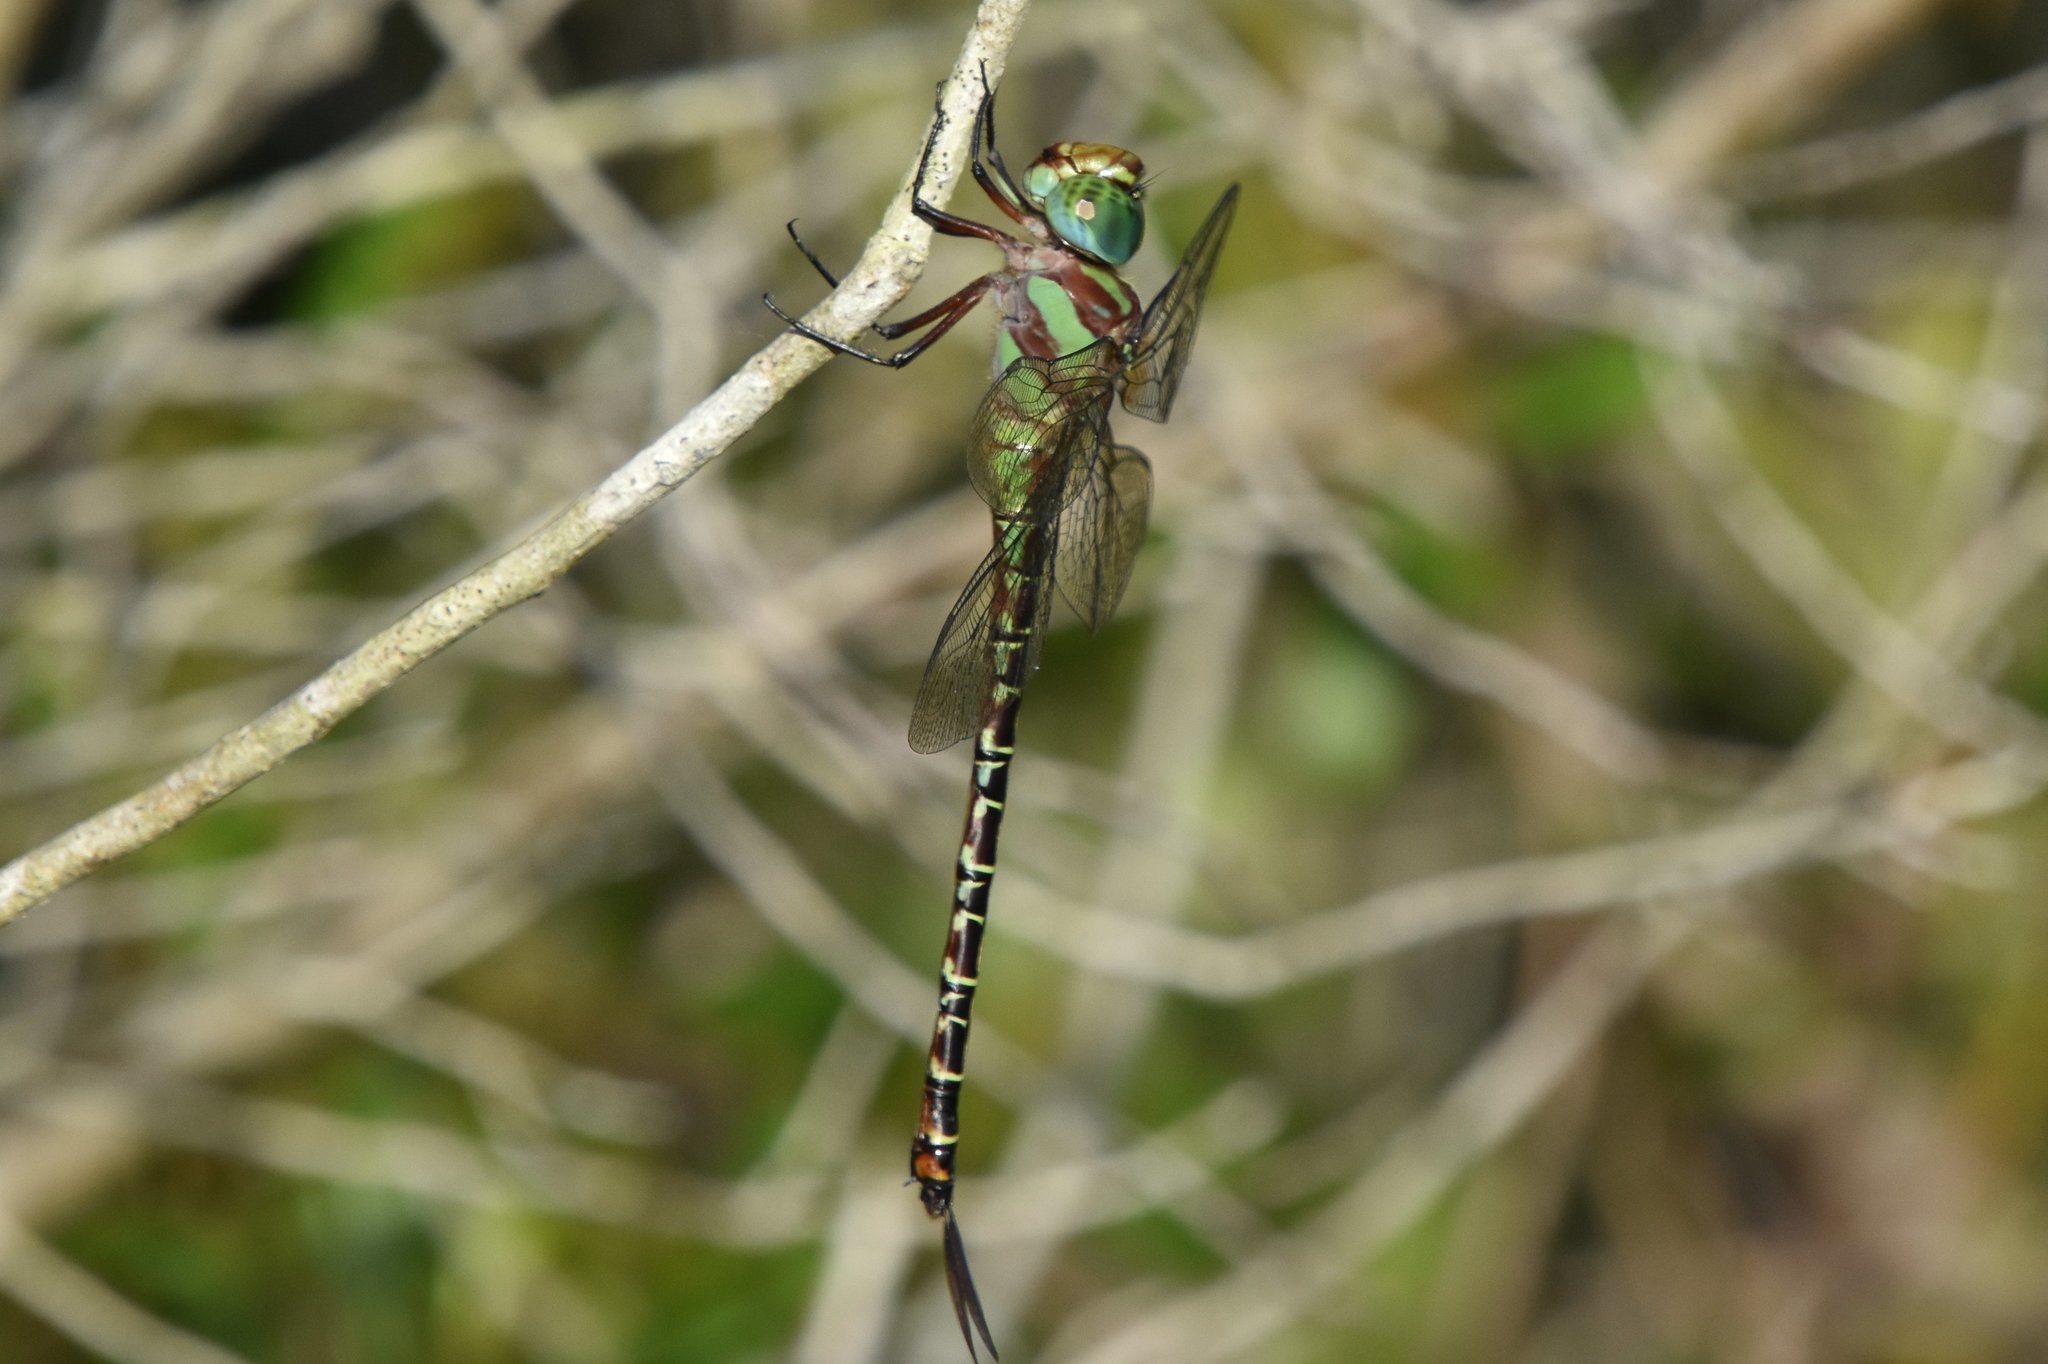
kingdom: Animalia
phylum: Arthropoda
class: Insecta
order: Odonata
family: Aeshnidae
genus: Coryphaeschna
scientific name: Coryphaeschna ingens
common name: Regal darner
